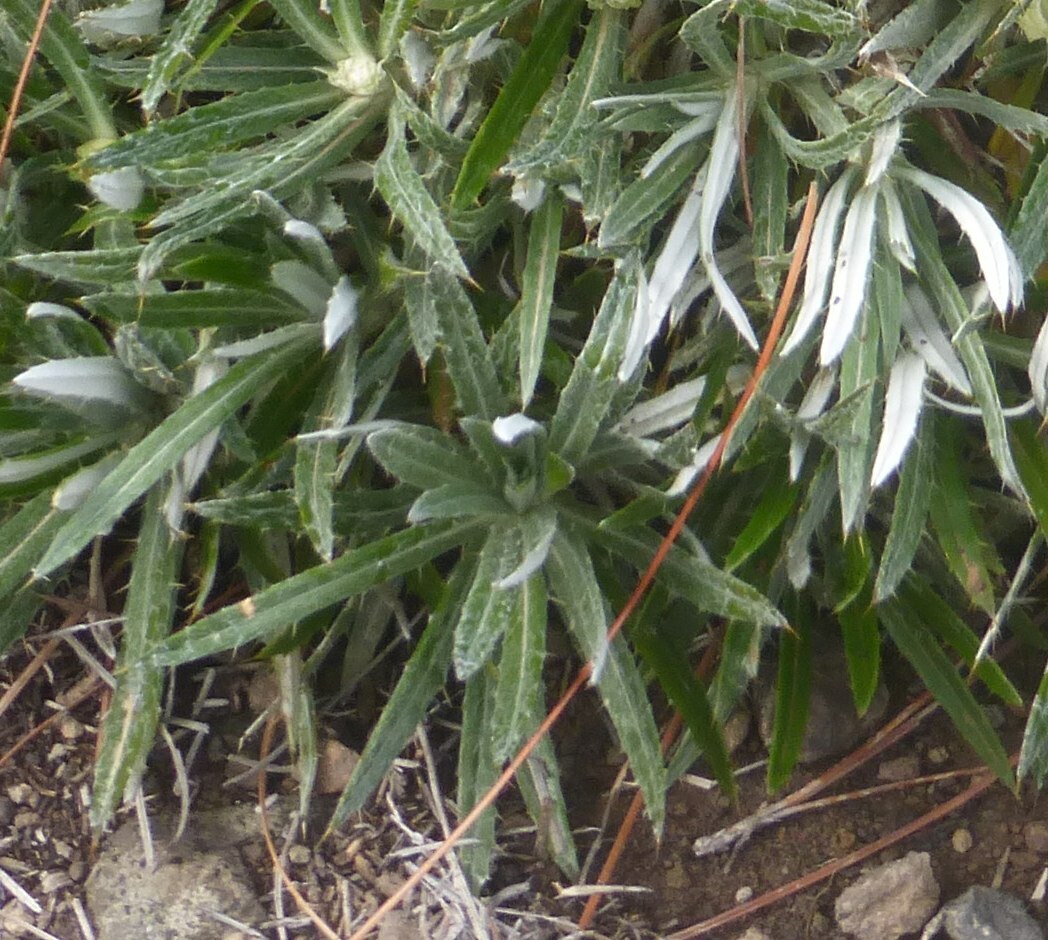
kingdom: Plantae
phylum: Tracheophyta
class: Magnoliopsida
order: Asterales
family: Asteraceae
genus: Carlina
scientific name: Carlina salicifolia
